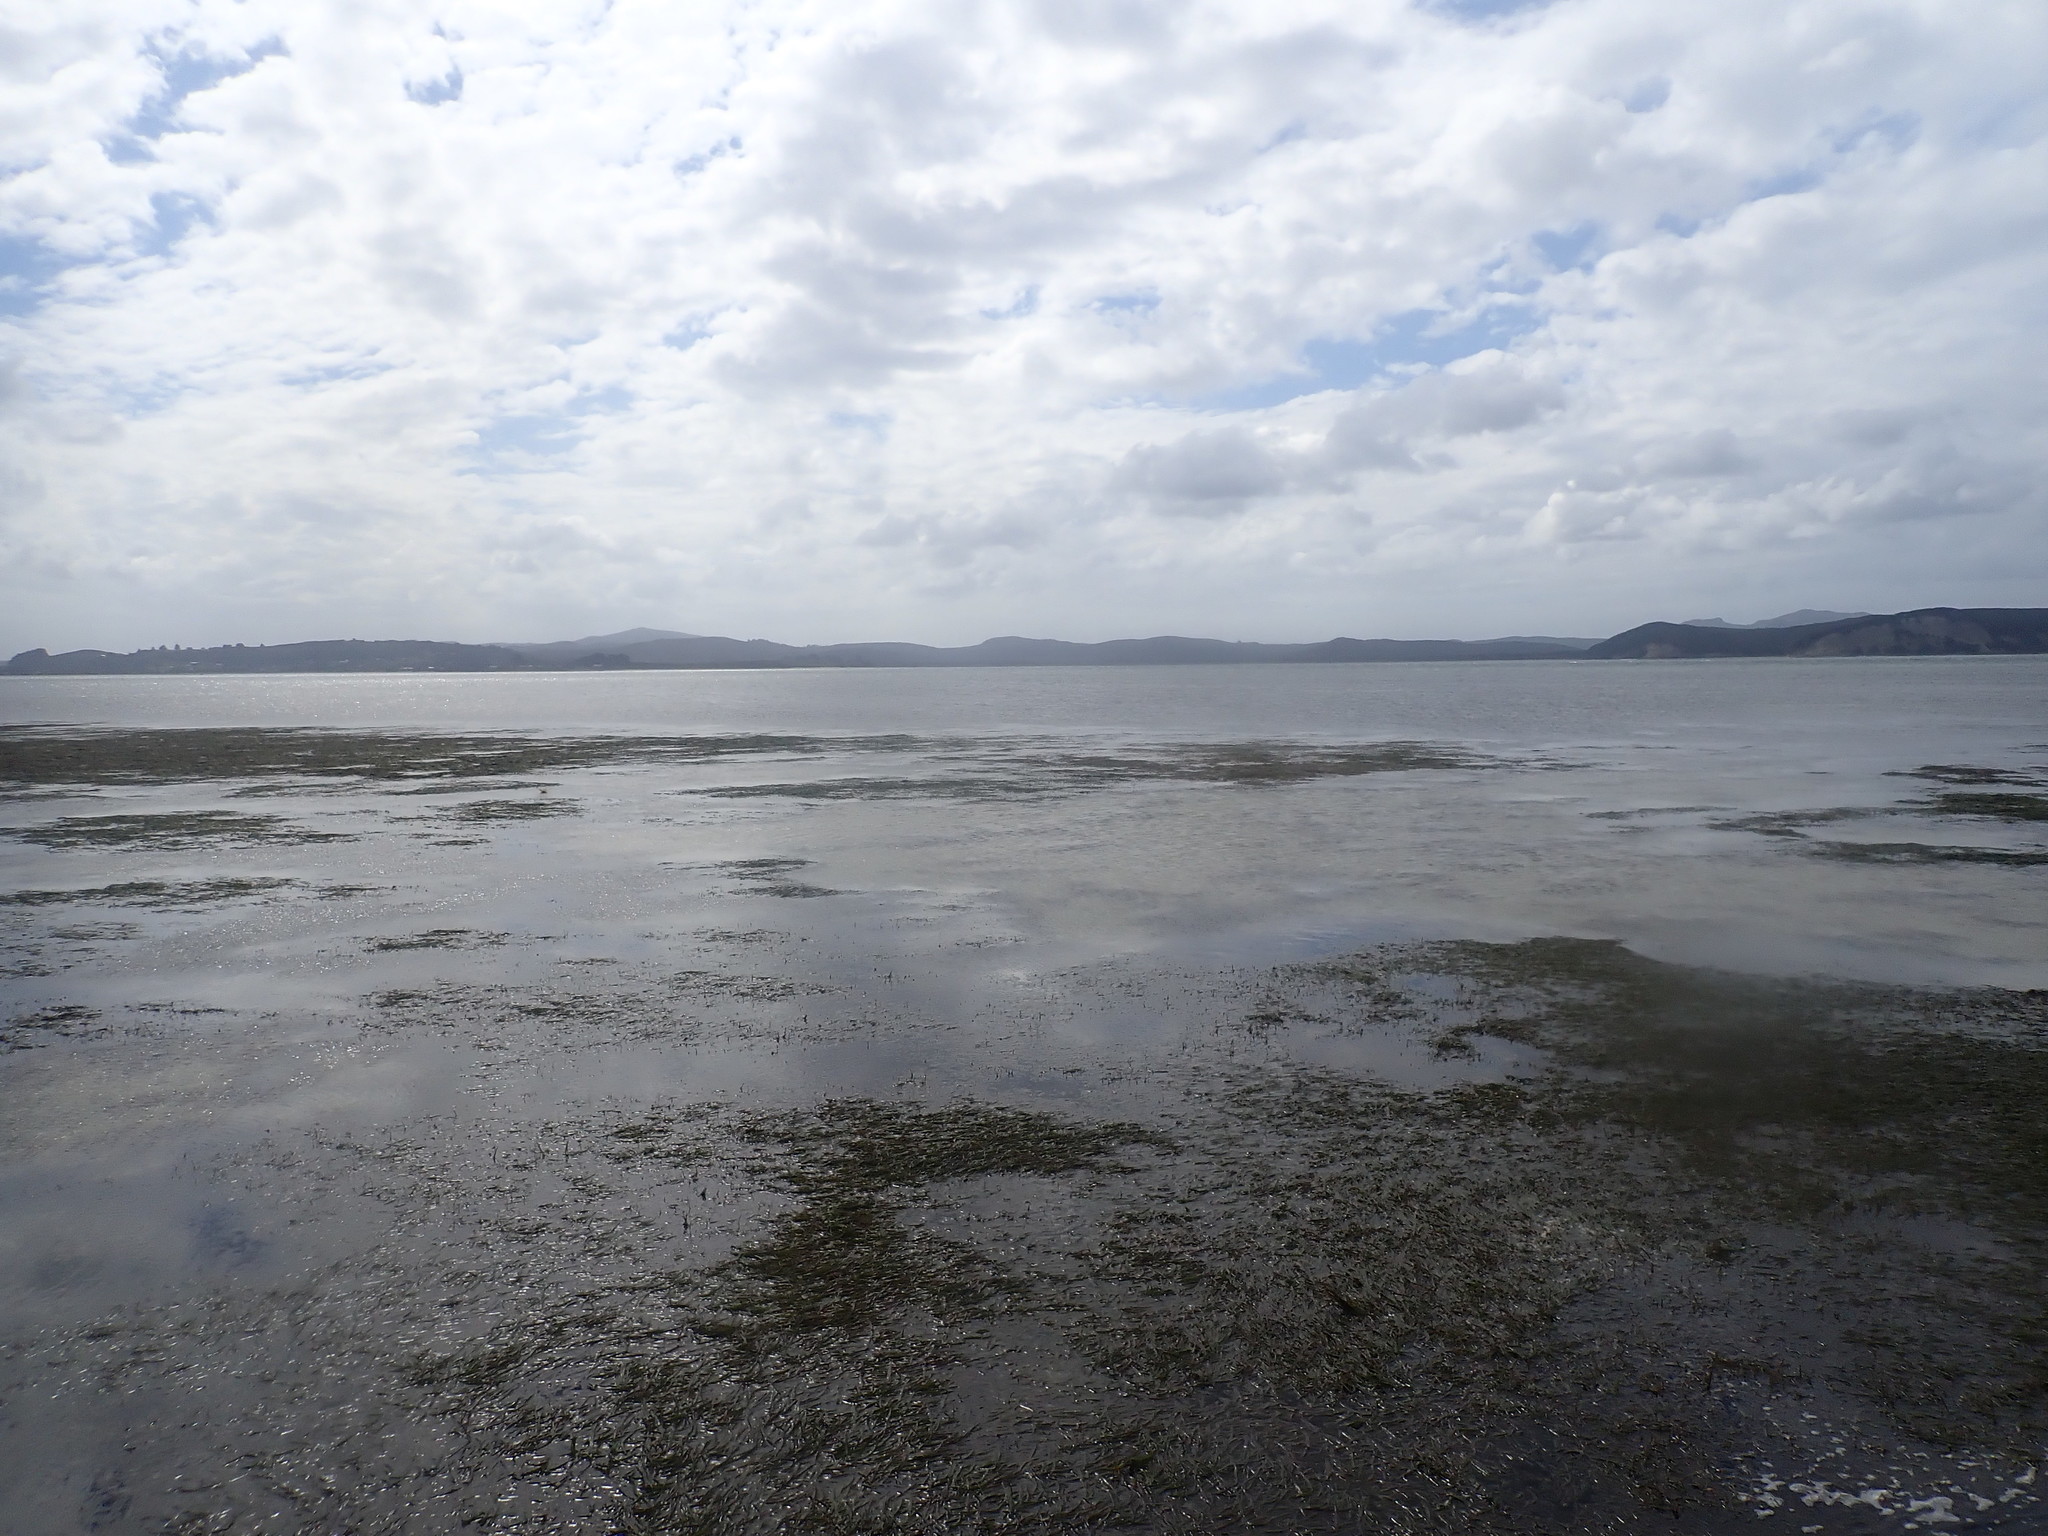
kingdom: Plantae
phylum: Tracheophyta
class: Liliopsida
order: Alismatales
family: Zosteraceae
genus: Zostera
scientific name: Zostera novazelandica
